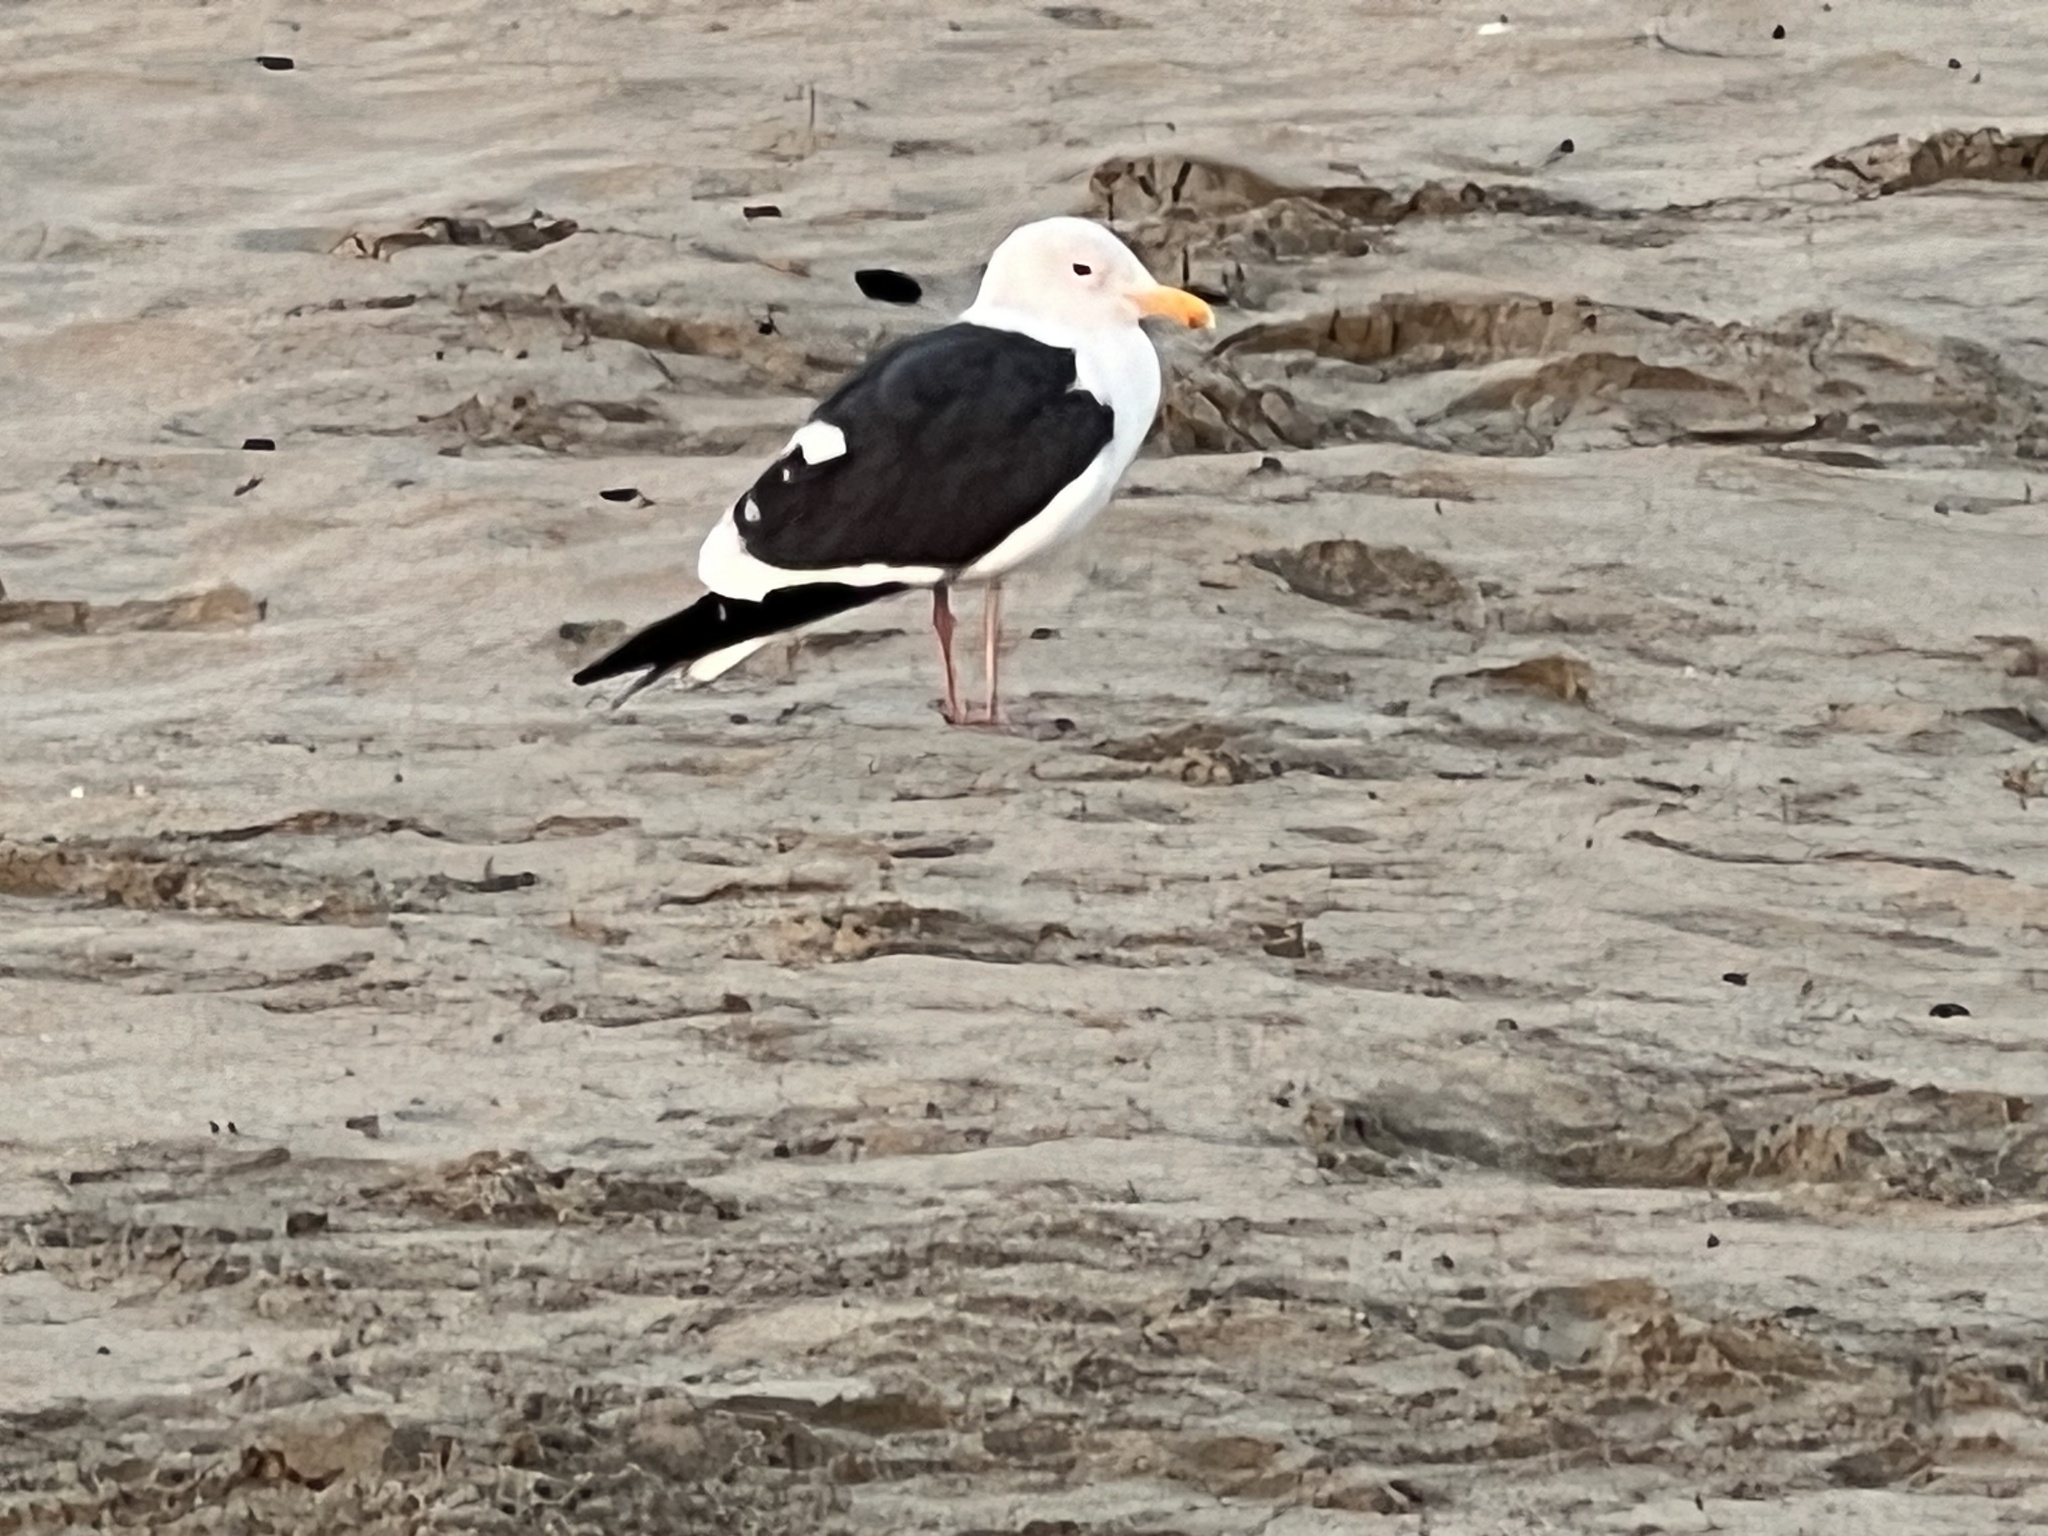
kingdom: Animalia
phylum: Chordata
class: Aves
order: Charadriiformes
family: Laridae
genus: Larus
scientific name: Larus occidentalis
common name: Western gull
